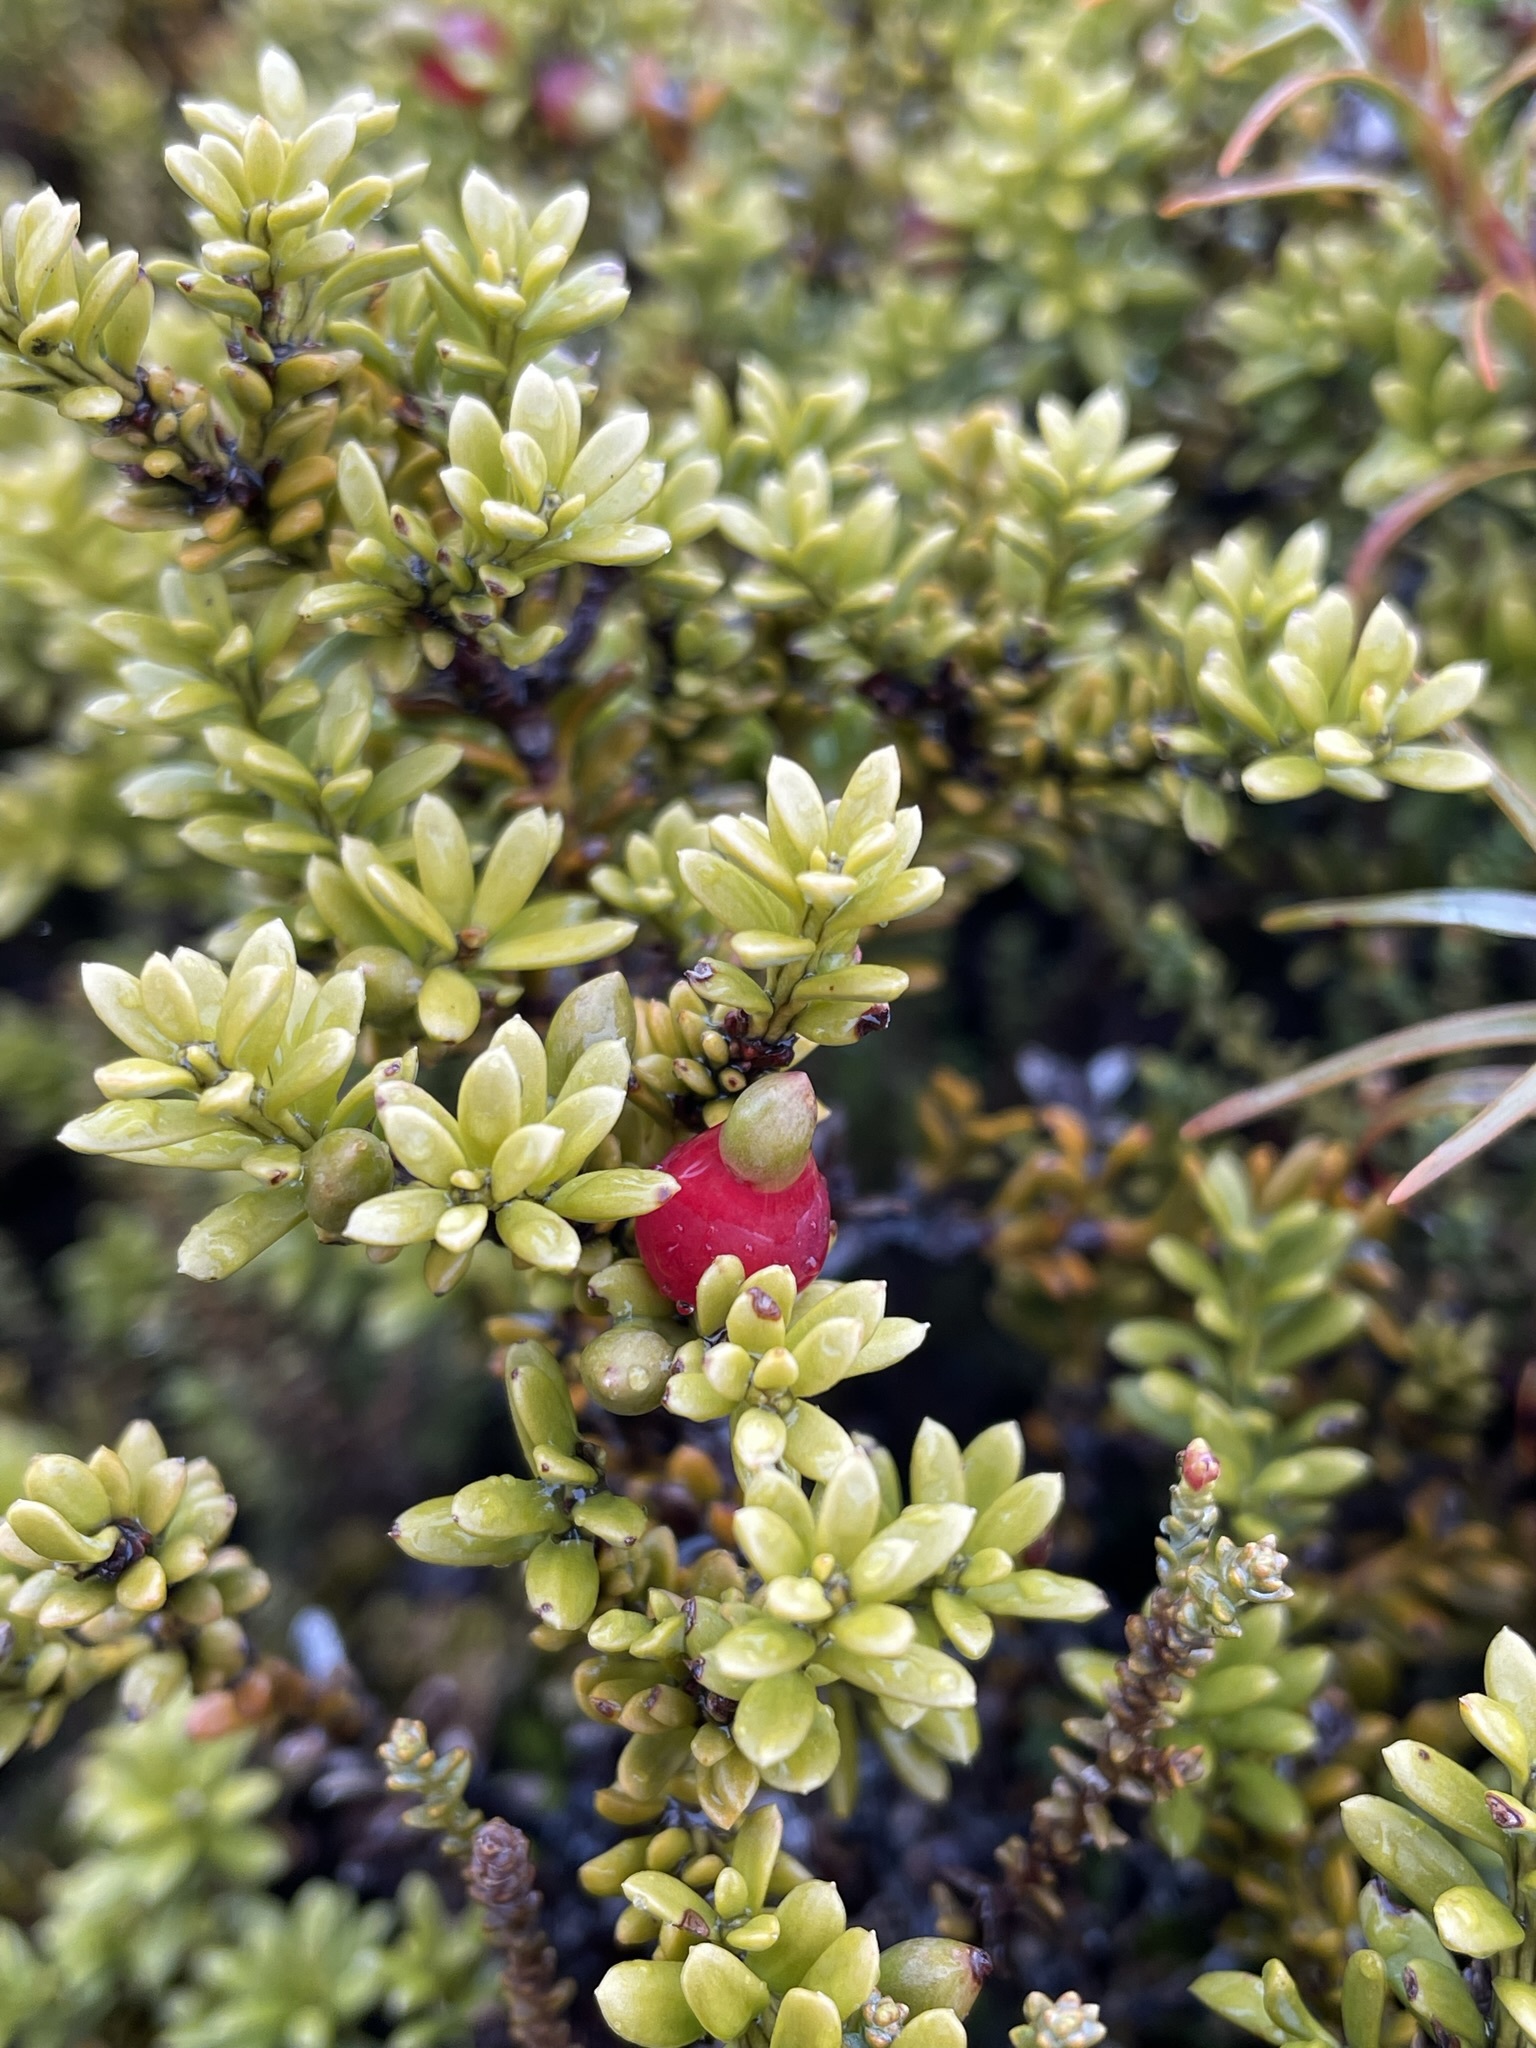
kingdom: Plantae
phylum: Tracheophyta
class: Pinopsida
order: Pinales
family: Podocarpaceae
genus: Podocarpus
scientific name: Podocarpus nivalis
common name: Alpine totara
